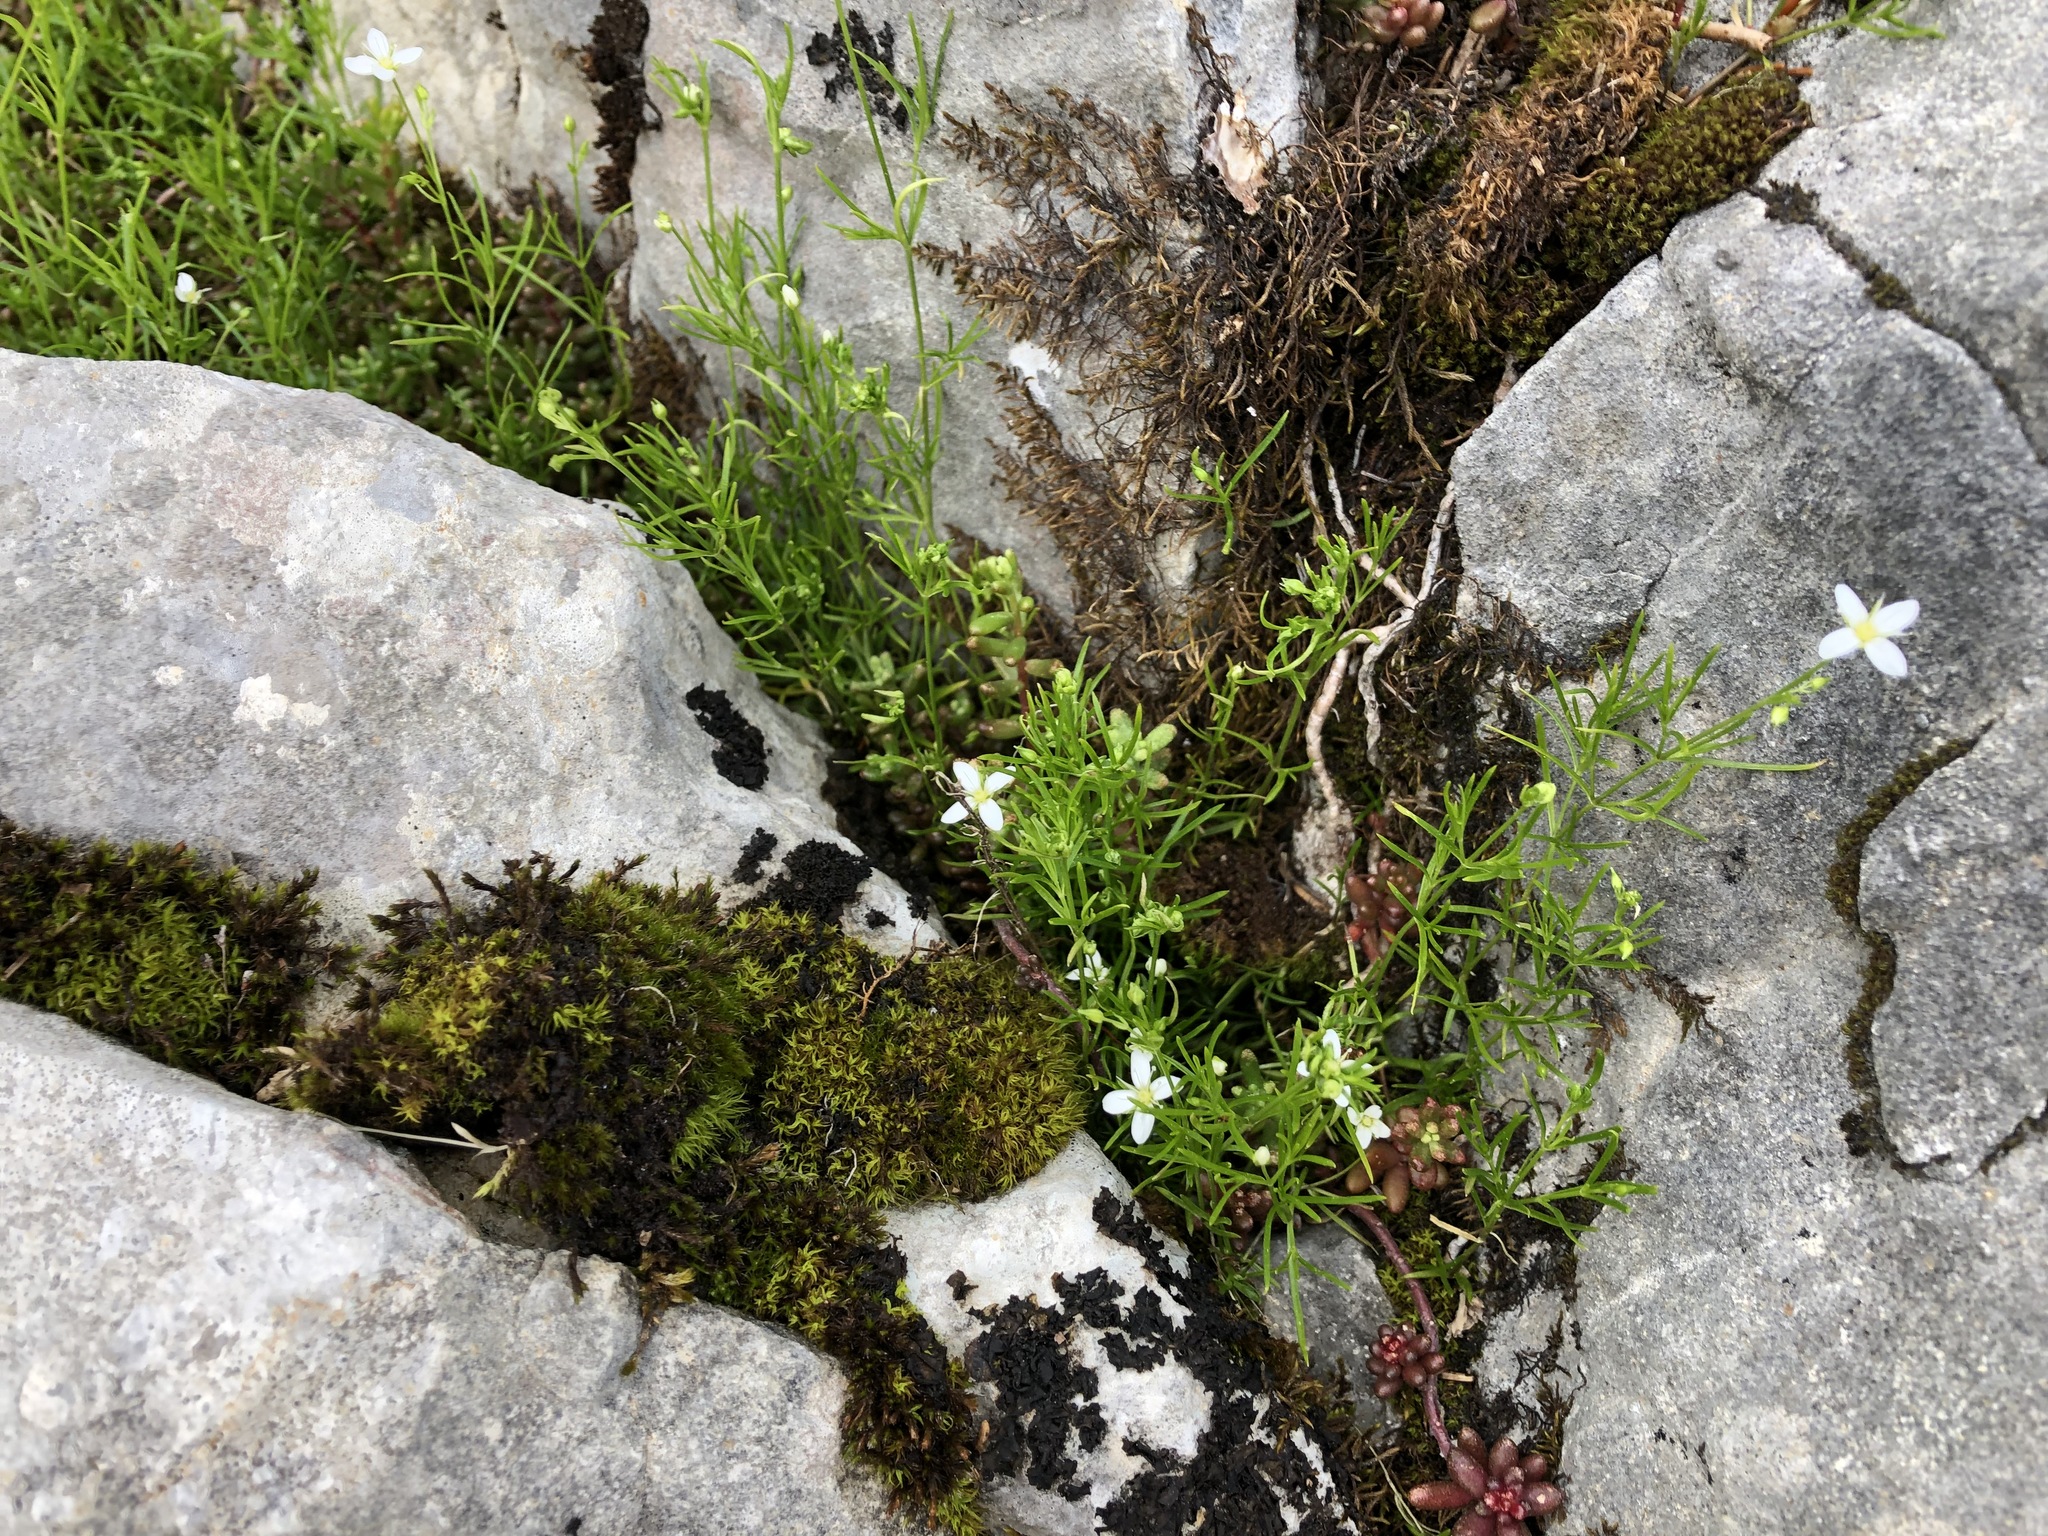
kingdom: Plantae
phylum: Tracheophyta
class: Magnoliopsida
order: Caryophyllales
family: Caryophyllaceae
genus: Moehringia
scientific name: Moehringia muscosa
